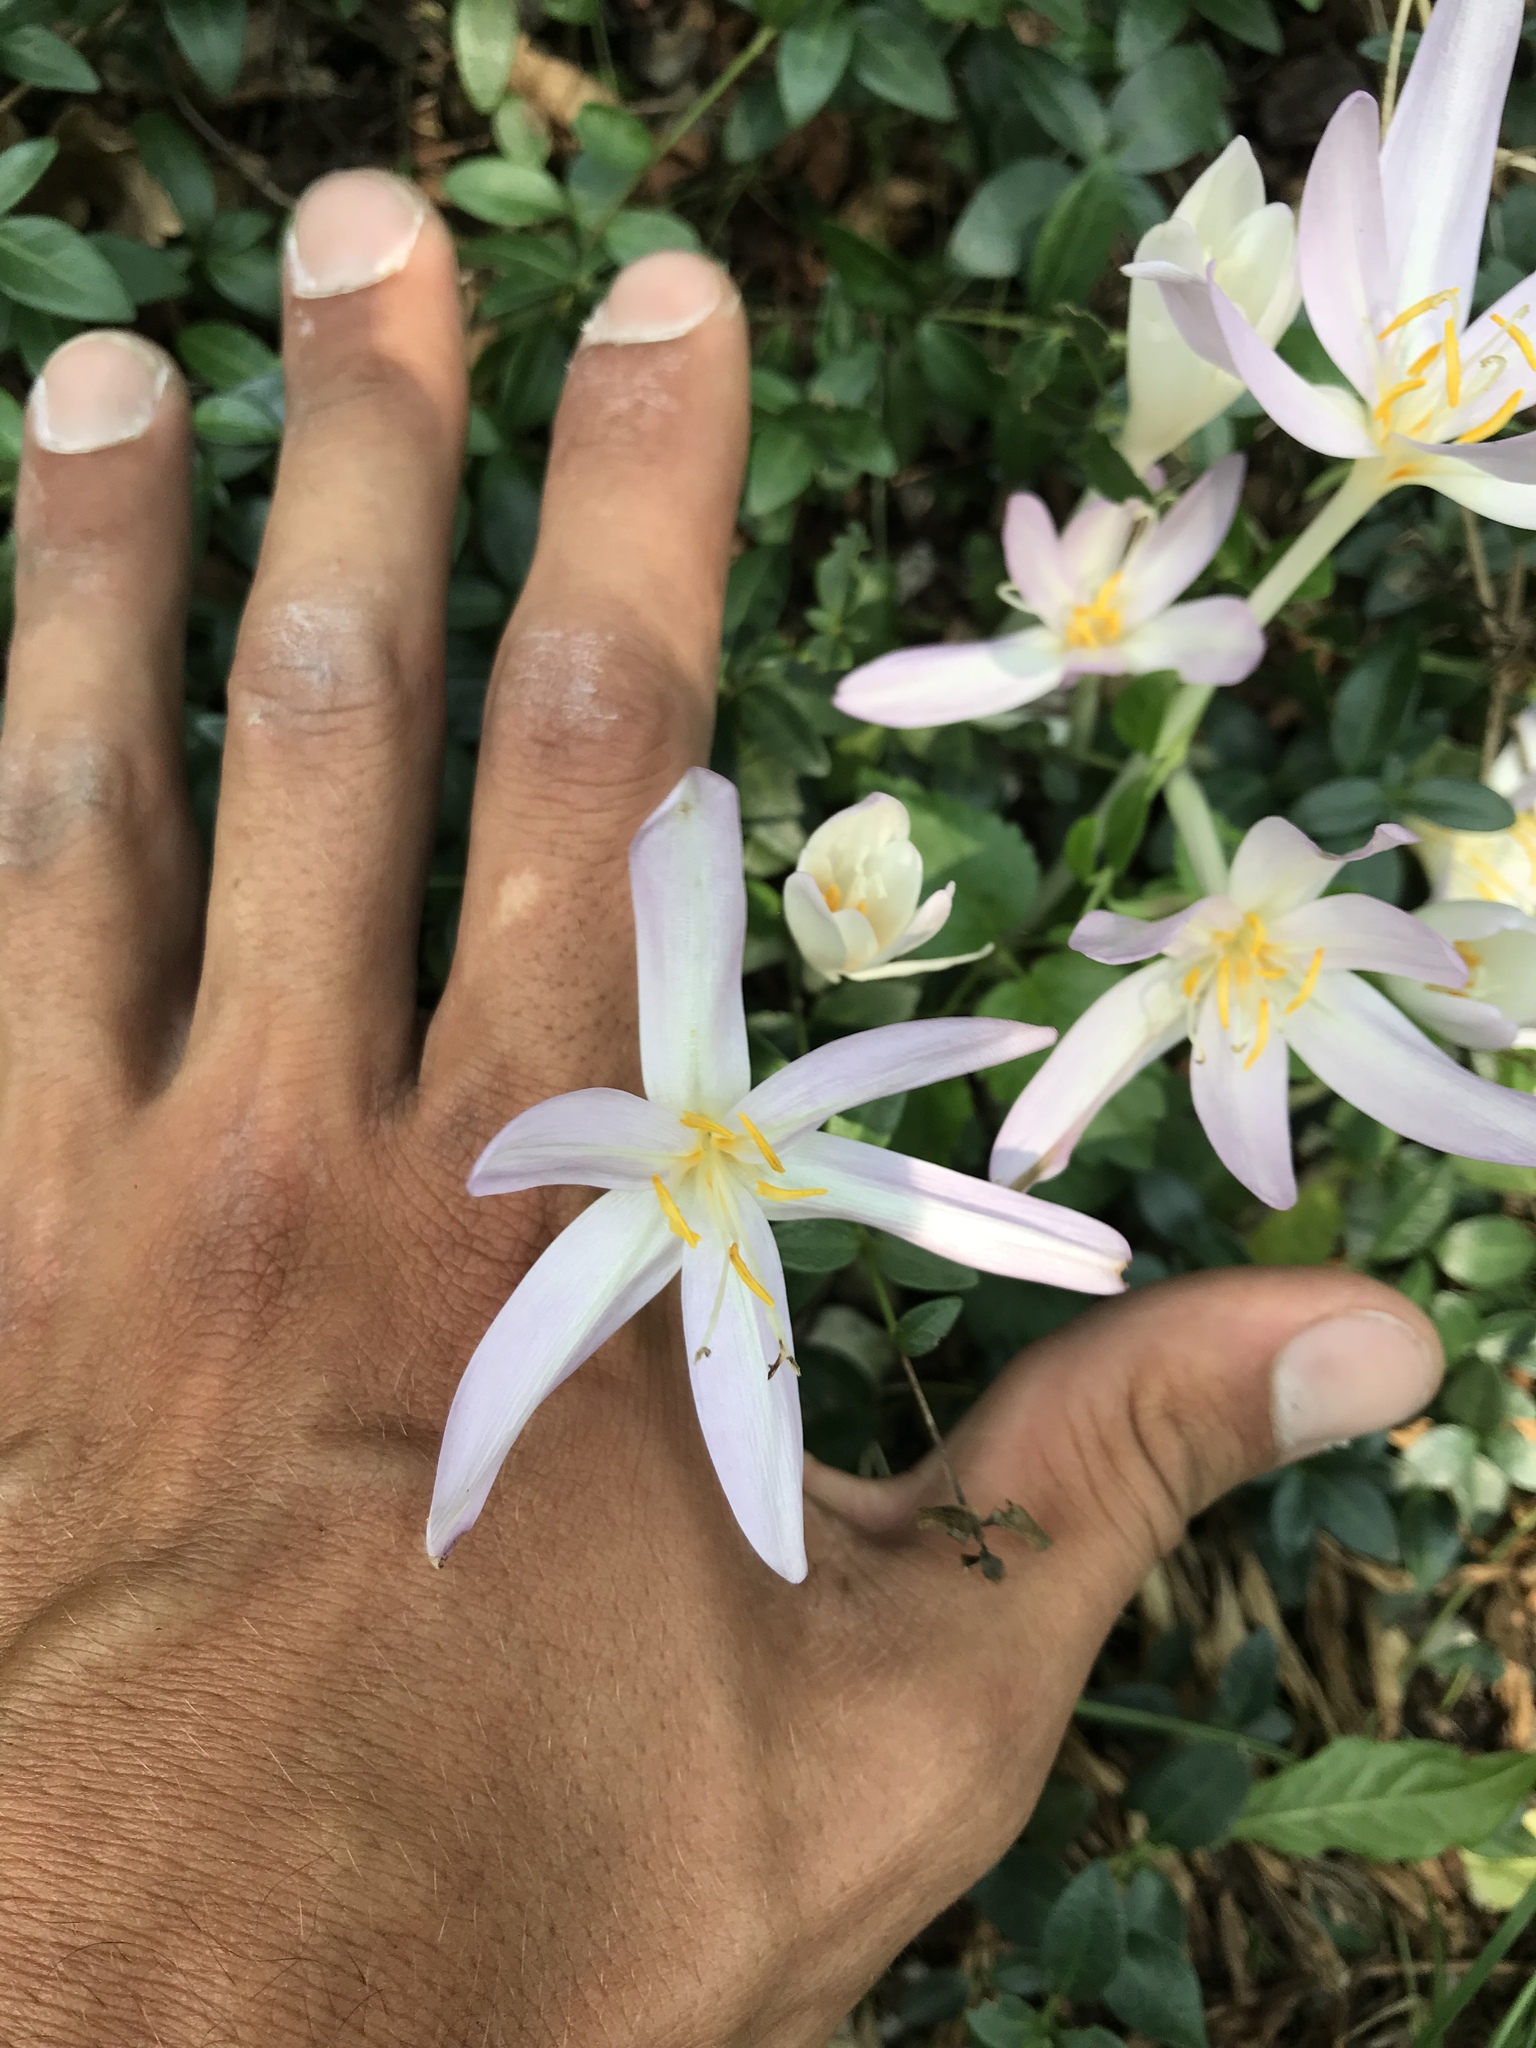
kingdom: Plantae
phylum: Tracheophyta
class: Liliopsida
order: Liliales
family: Colchicaceae
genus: Colchicum
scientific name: Colchicum autumnale
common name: Autumn crocus
